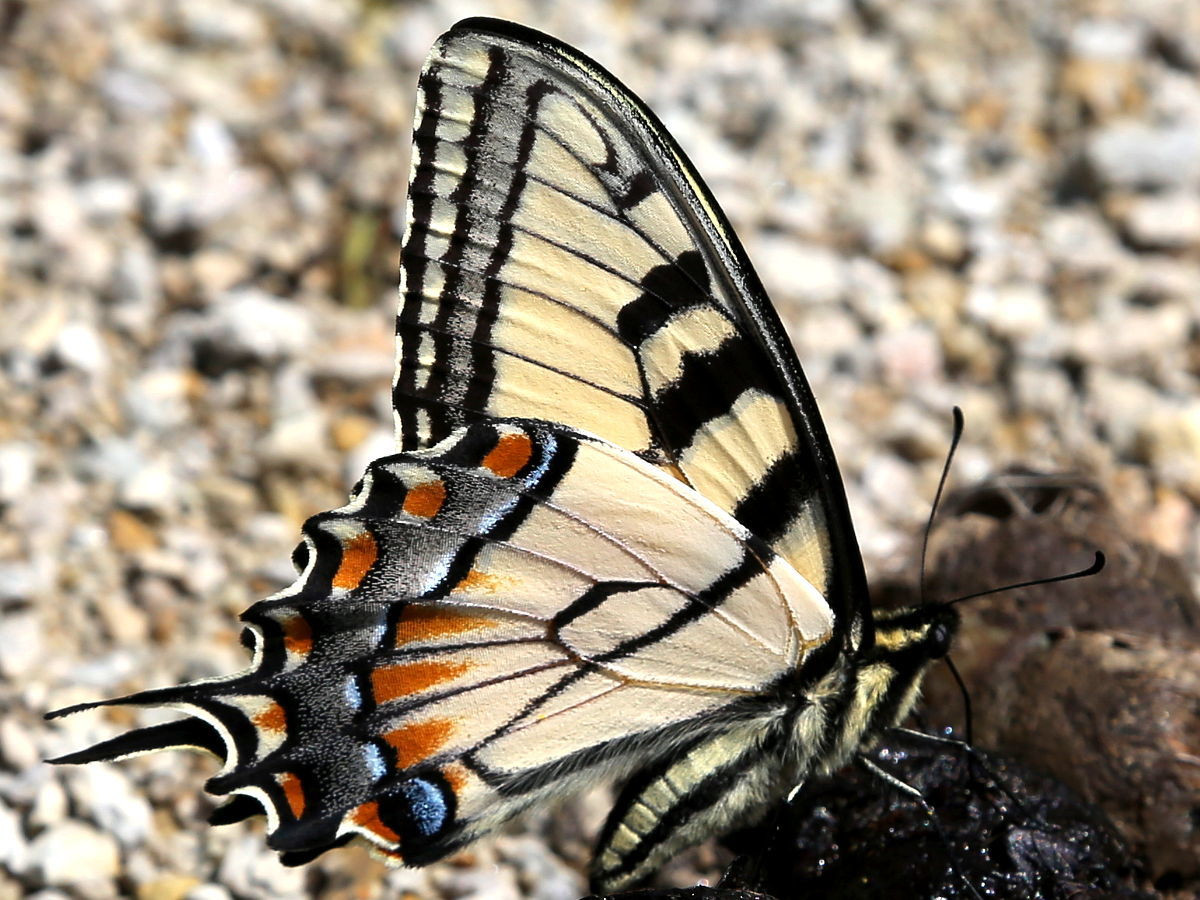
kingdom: Animalia
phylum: Arthropoda
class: Insecta
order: Lepidoptera
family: Papilionidae
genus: Papilio
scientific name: Papilio glaucus
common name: Tiger swallowtail
